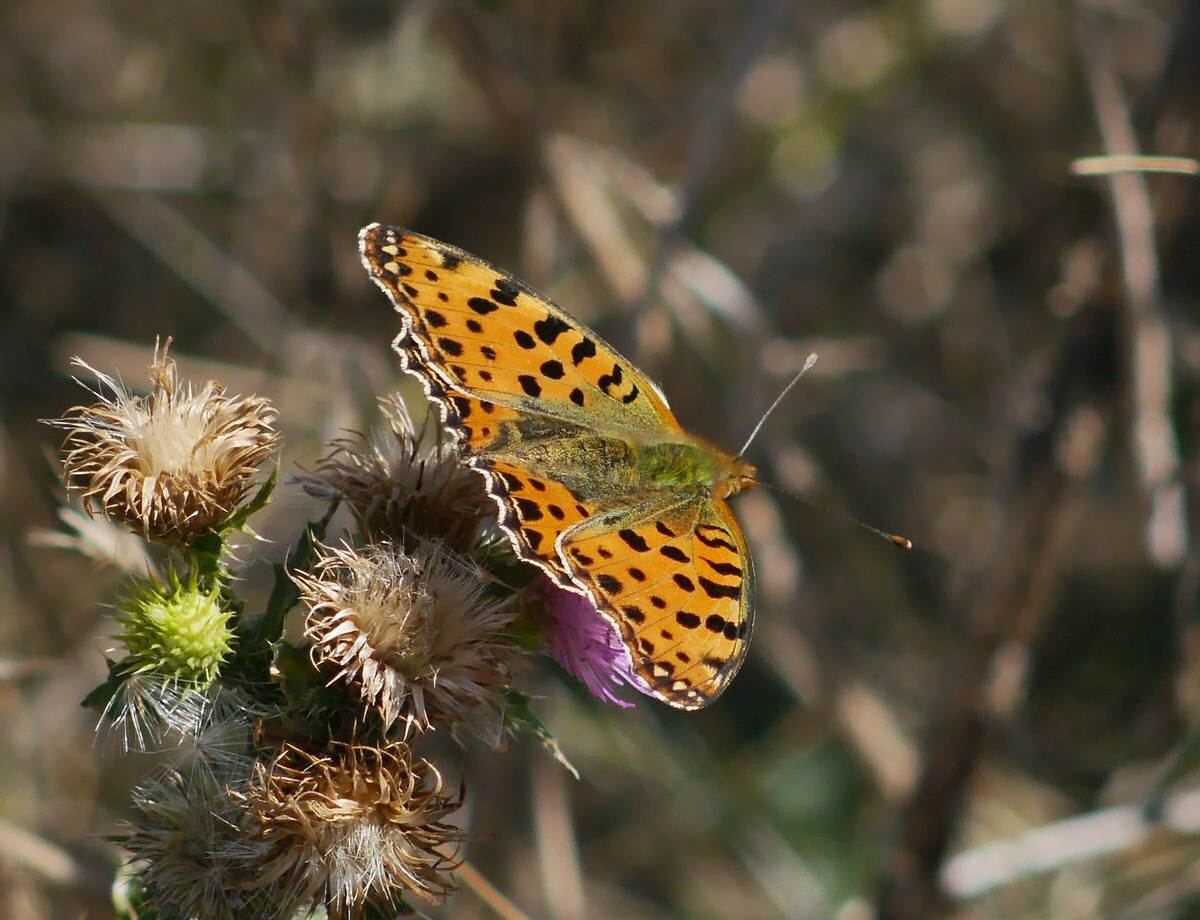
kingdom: Animalia
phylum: Arthropoda
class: Insecta
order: Lepidoptera
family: Nymphalidae
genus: Issoria
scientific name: Issoria lathonia
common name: Queen of spain fritillary
